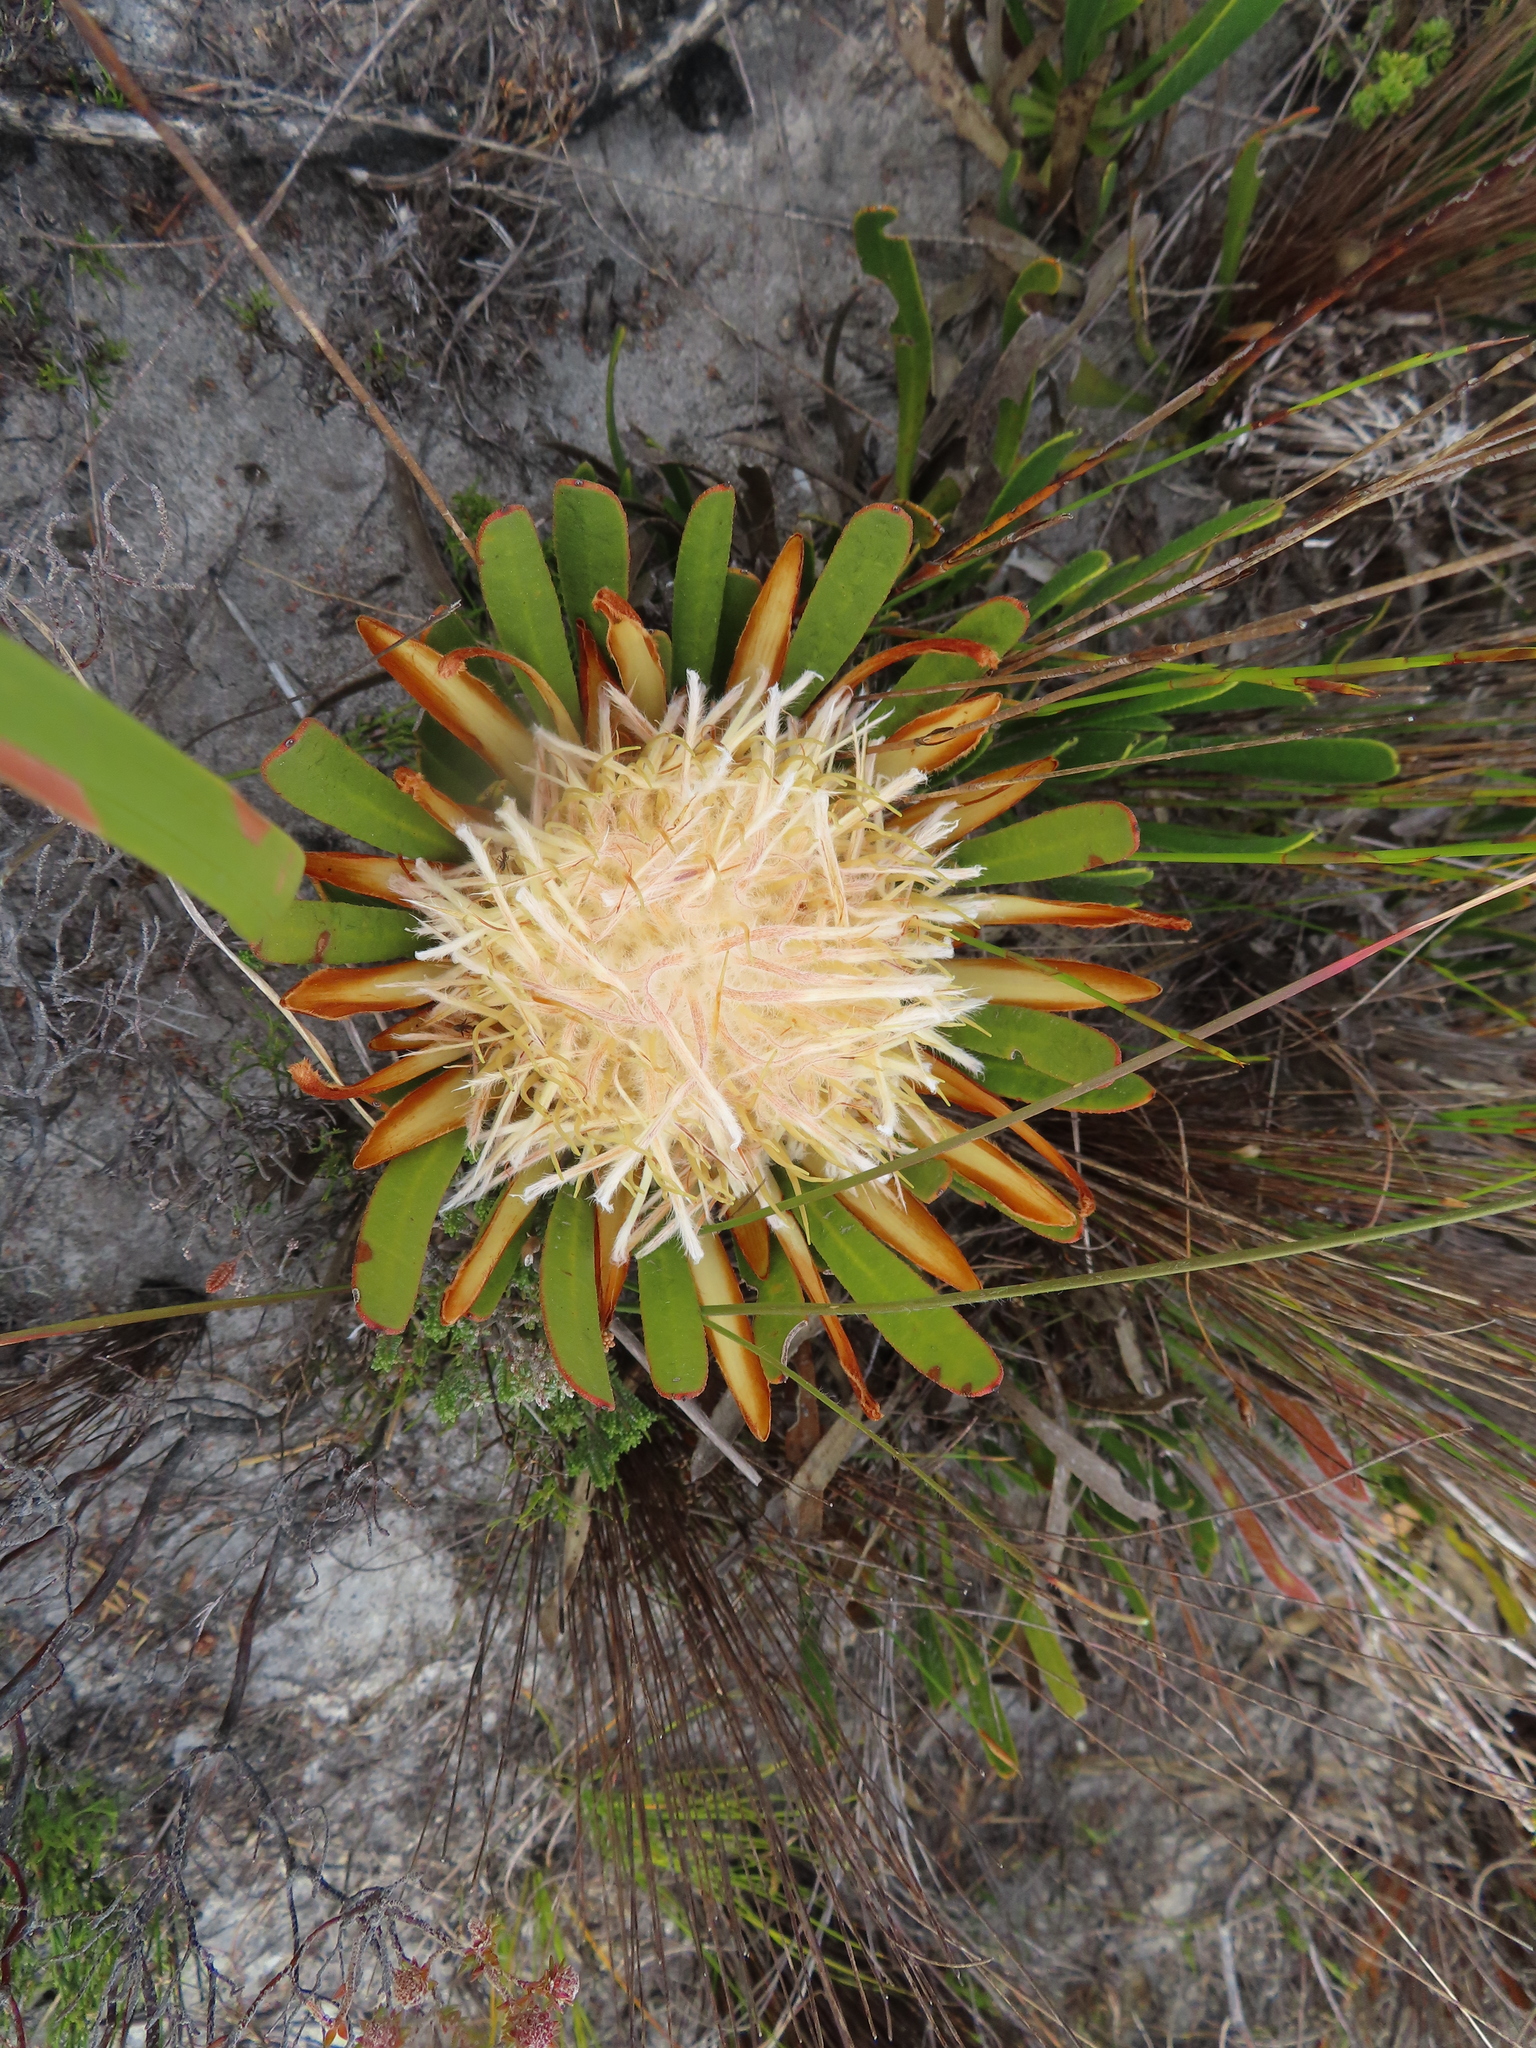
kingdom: Plantae
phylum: Tracheophyta
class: Magnoliopsida
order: Proteales
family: Proteaceae
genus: Protea
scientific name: Protea aspera
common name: Rough-leaf sugarbush
